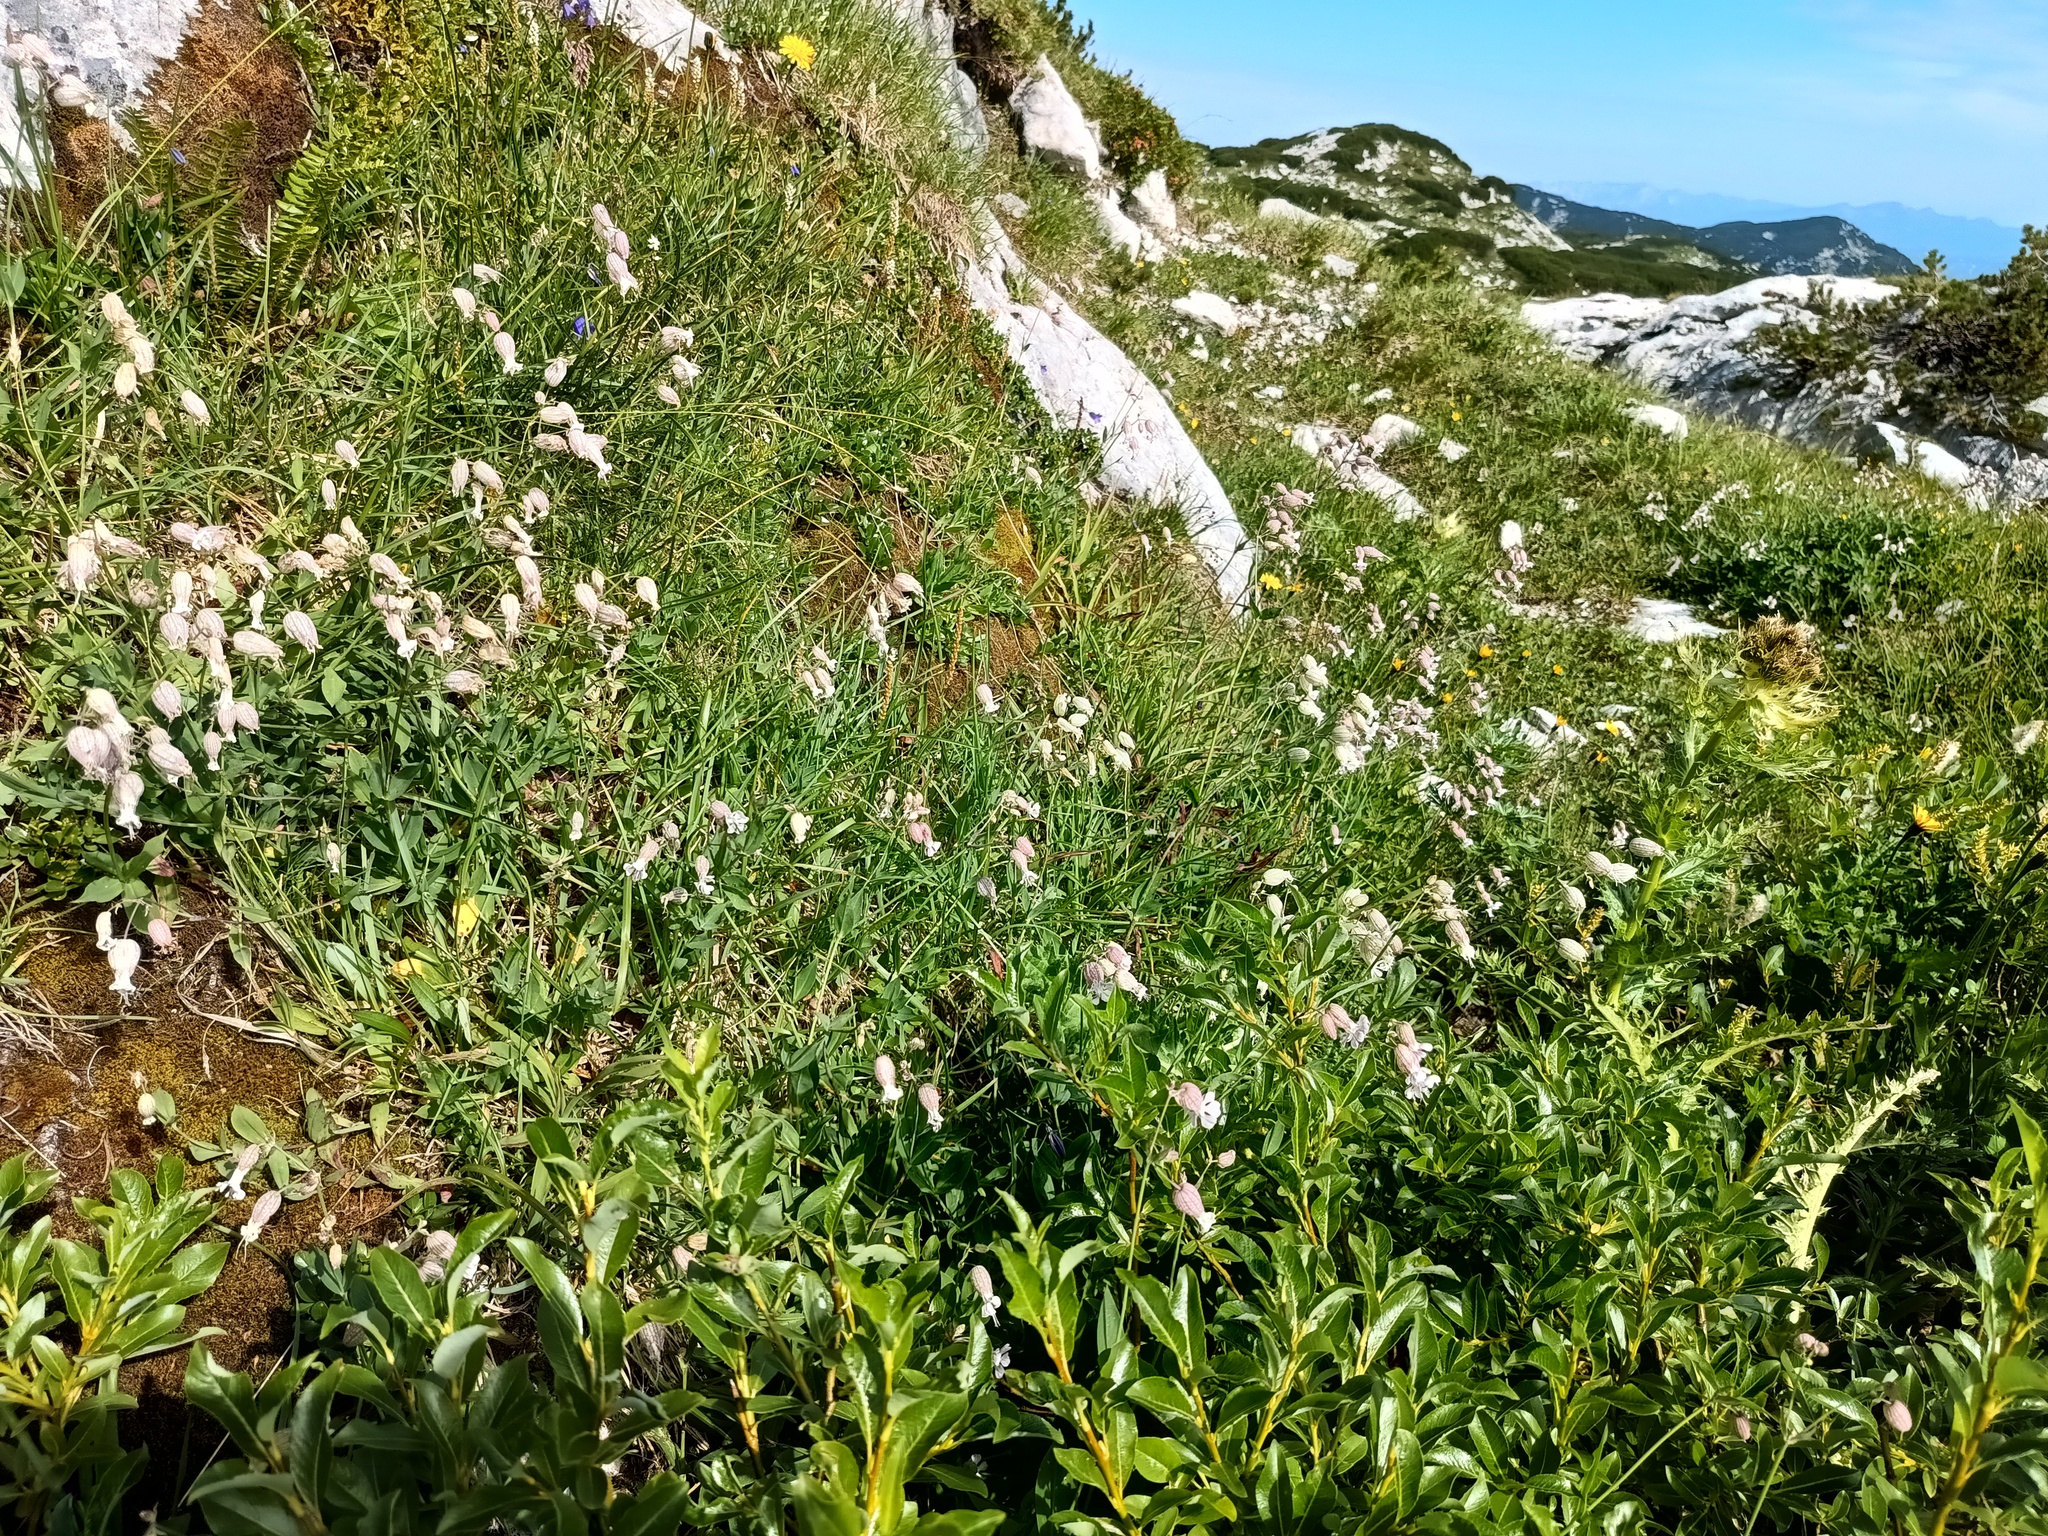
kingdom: Plantae
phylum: Tracheophyta
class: Magnoliopsida
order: Caryophyllales
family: Caryophyllaceae
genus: Silene
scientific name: Silene vulgaris
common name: Bladder campion
